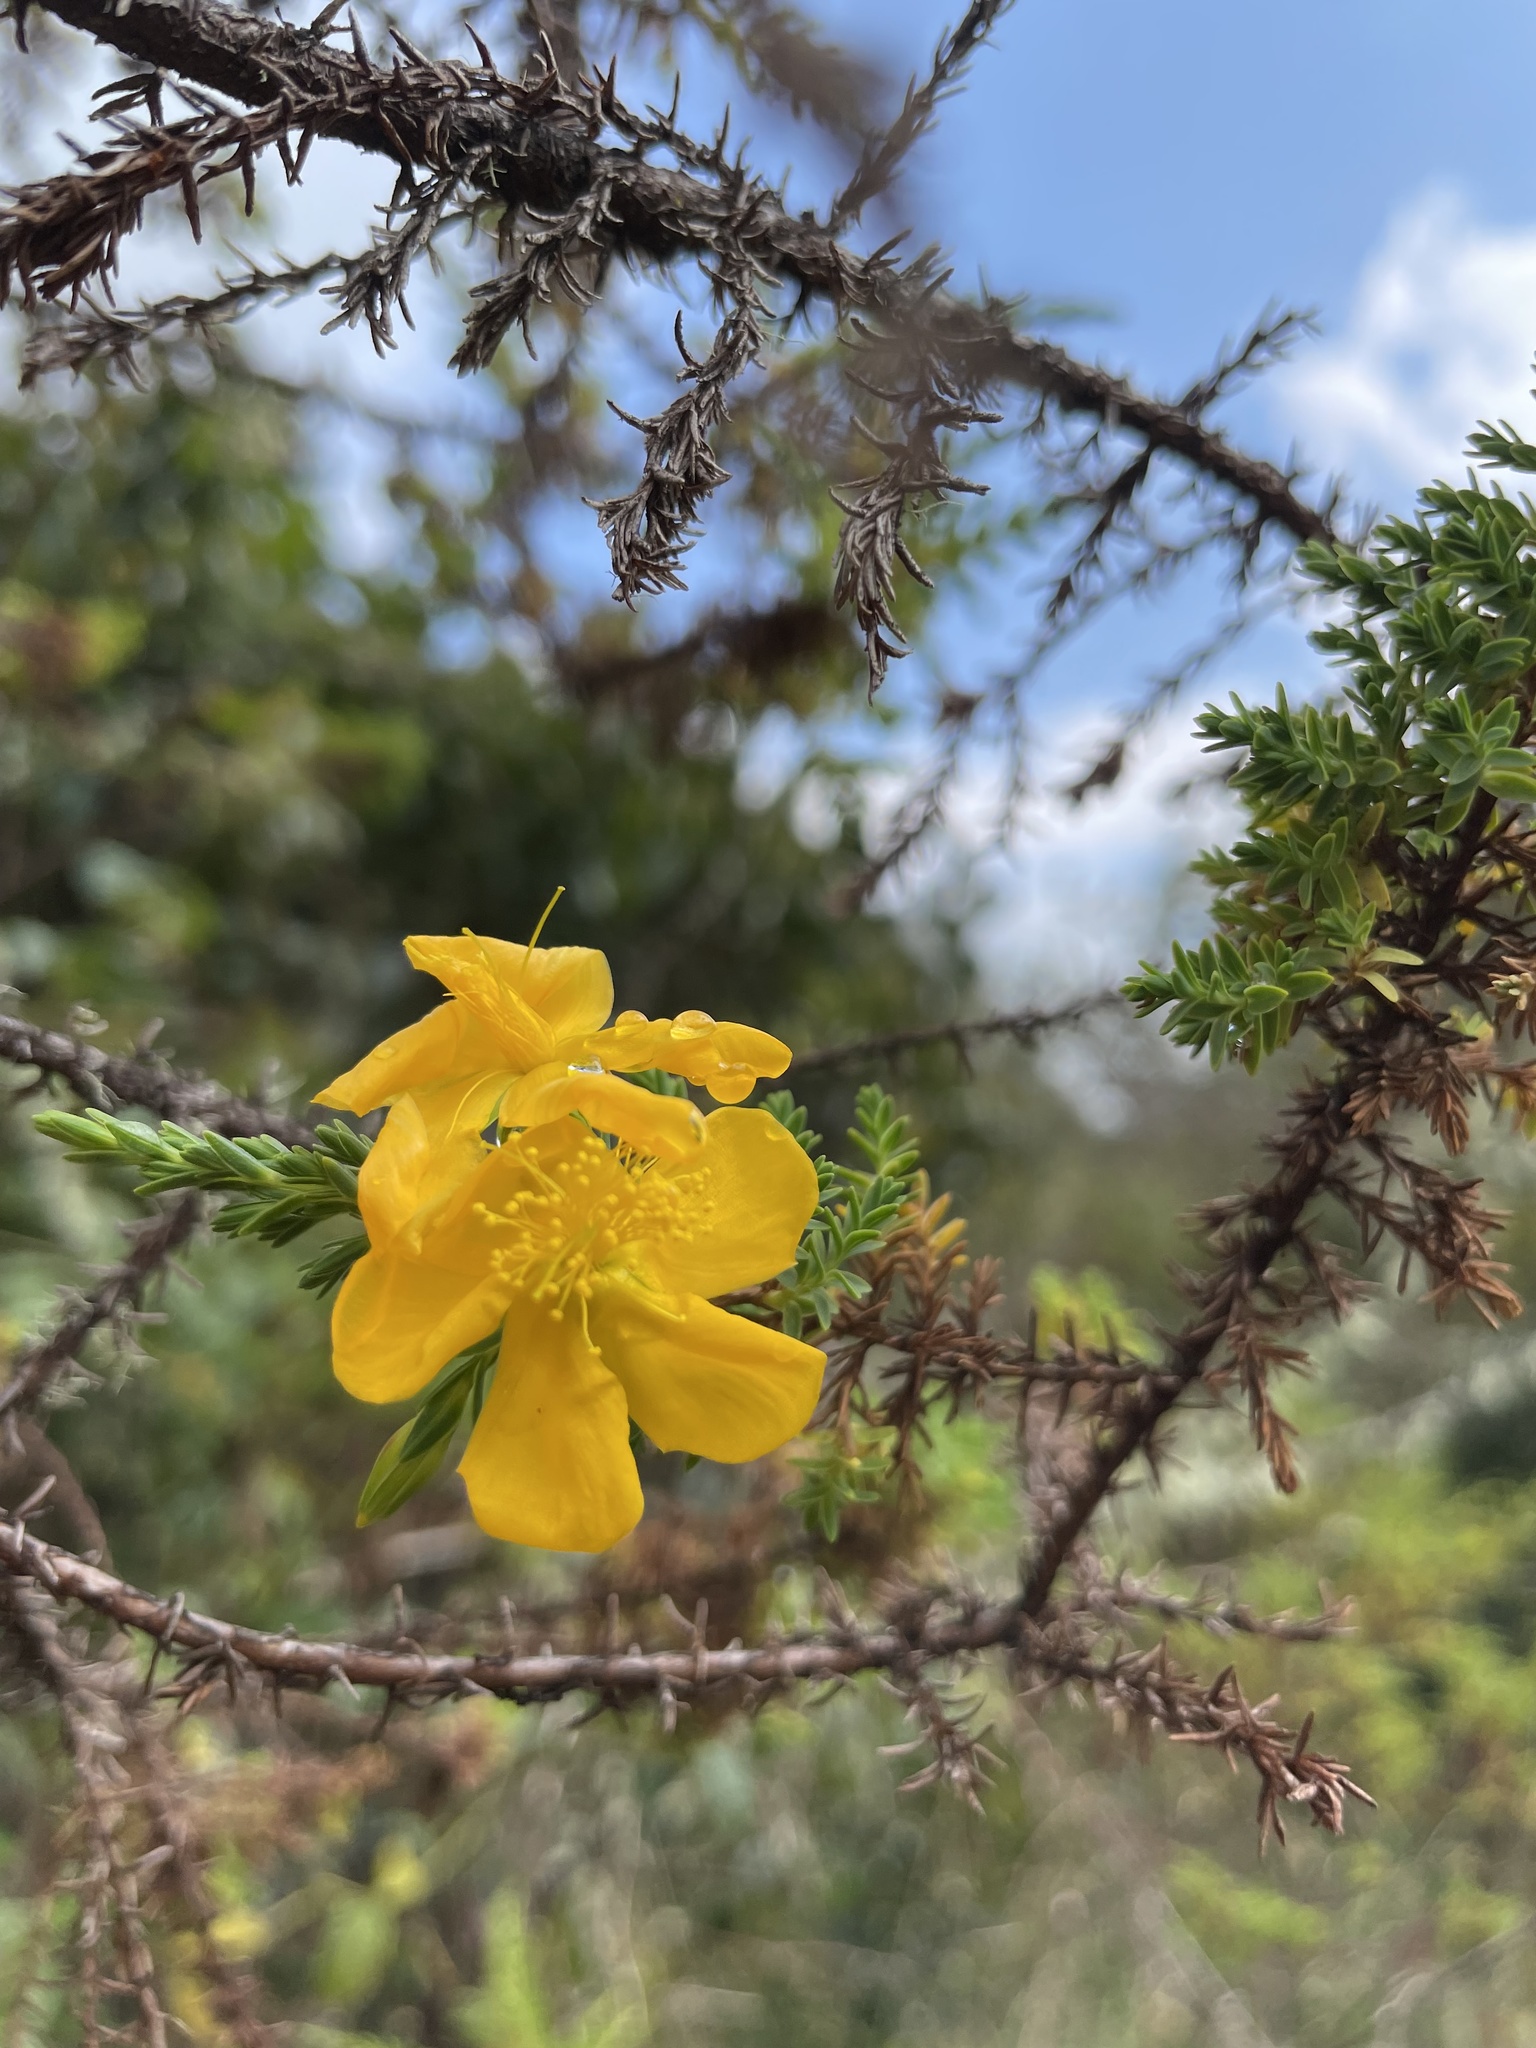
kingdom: Plantae
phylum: Tracheophyta
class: Magnoliopsida
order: Malpighiales
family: Hypericaceae
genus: Hypericum
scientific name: Hypericum laricifolium
